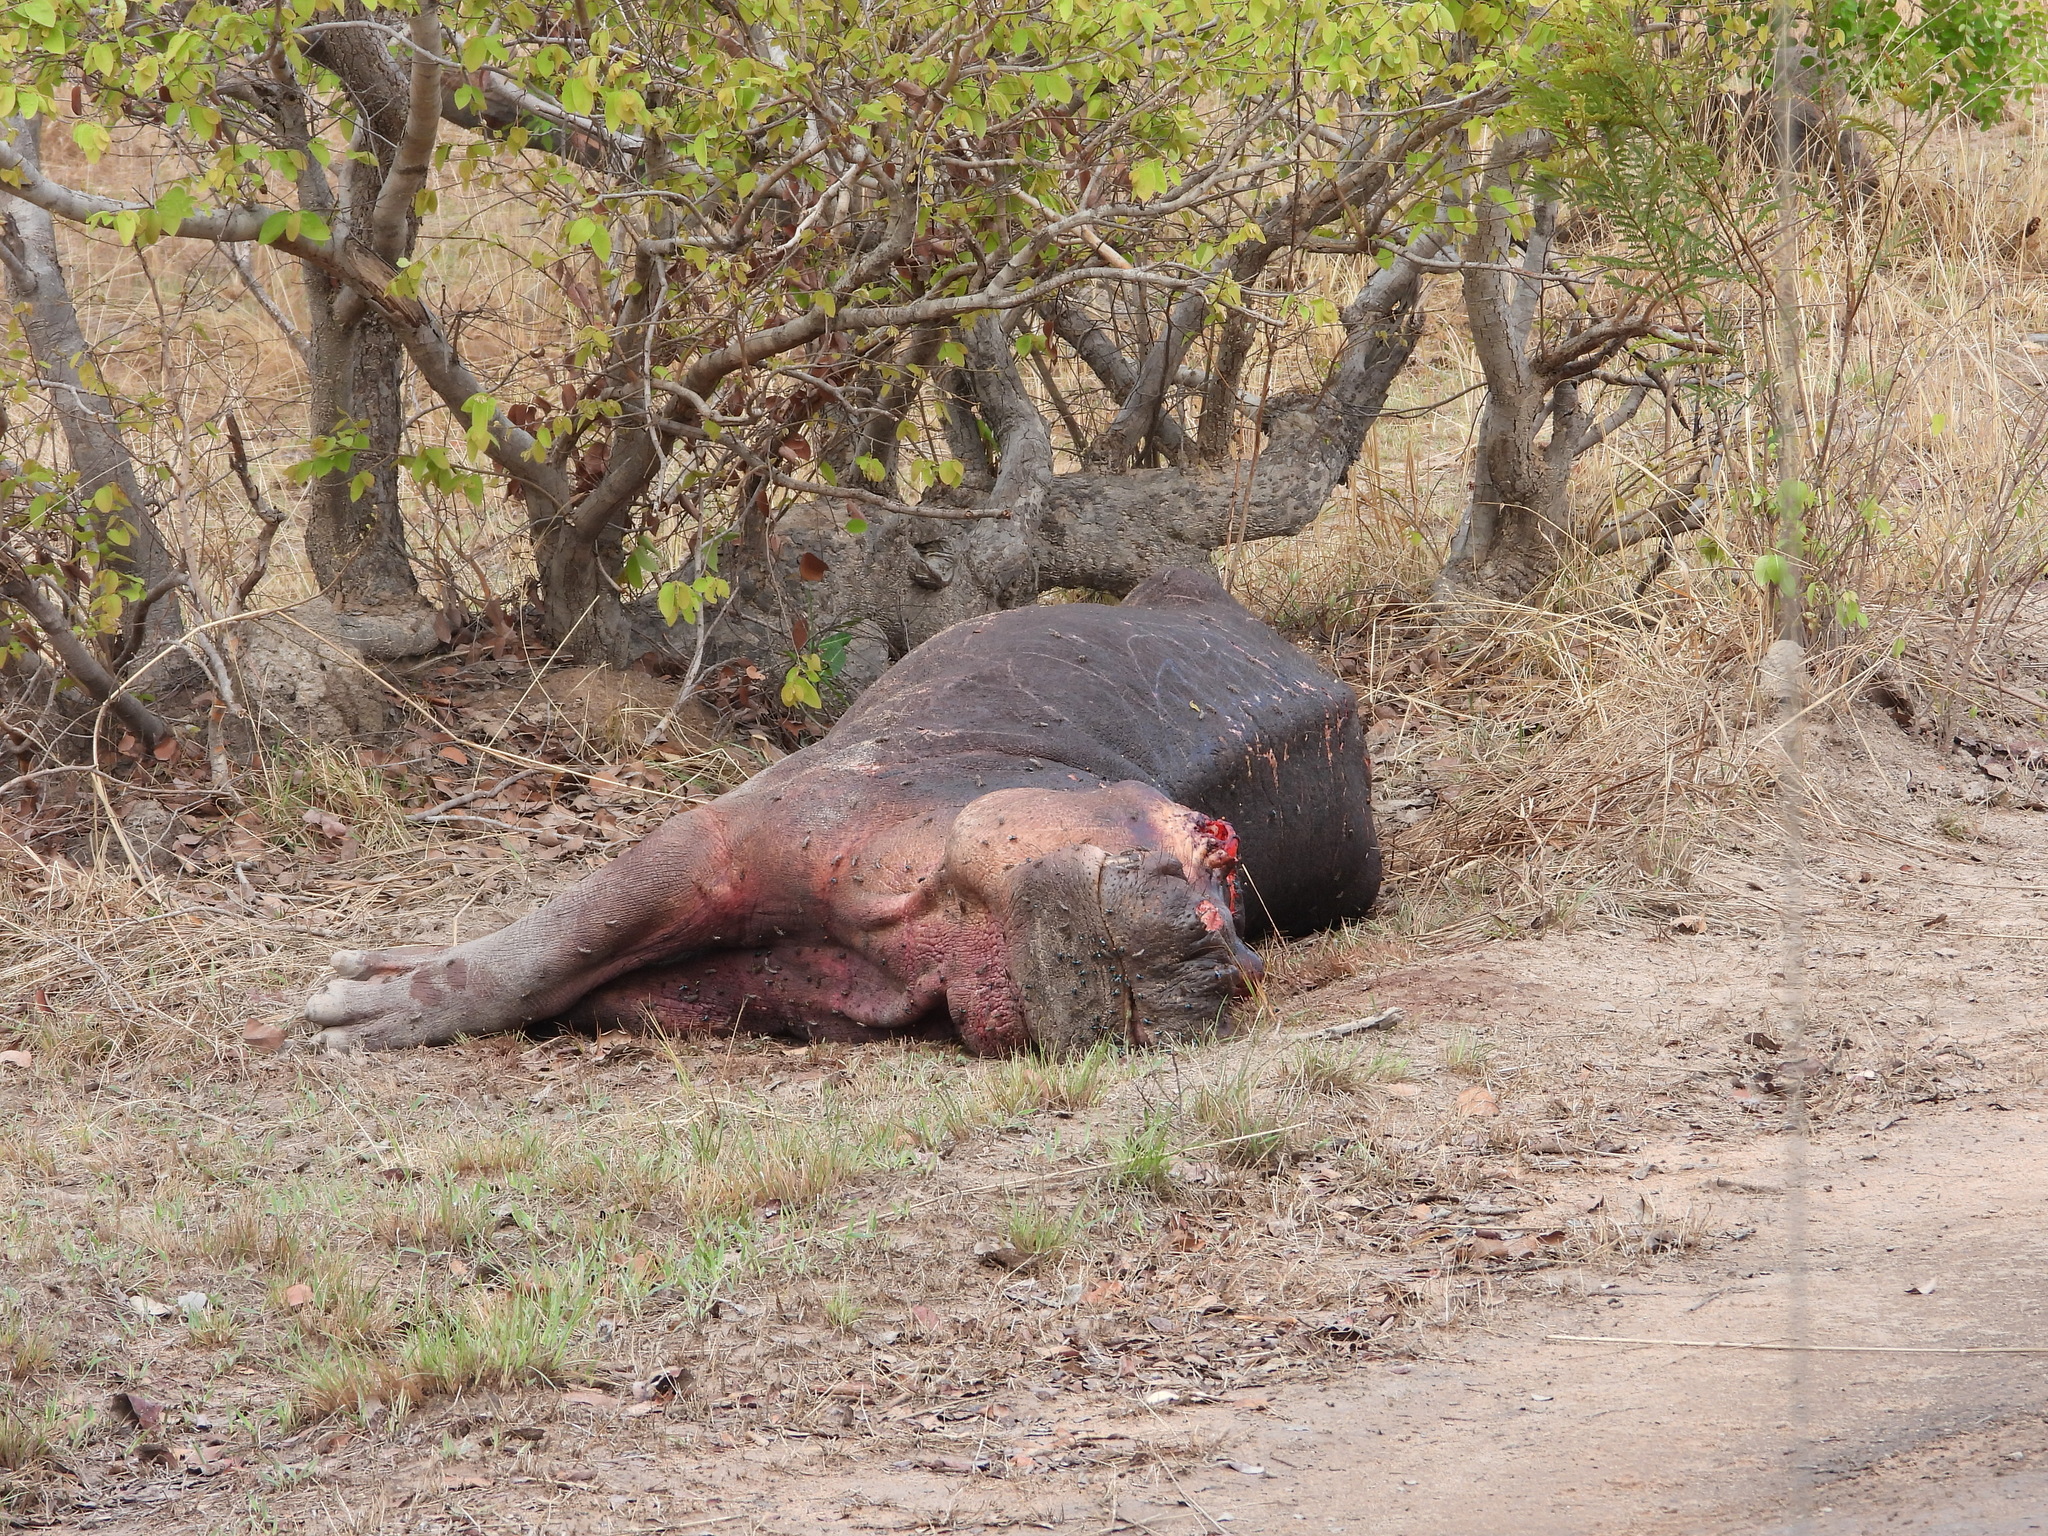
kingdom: Animalia
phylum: Chordata
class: Mammalia
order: Artiodactyla
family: Hippopotamidae
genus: Hippopotamus
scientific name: Hippopotamus amphibius
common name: Common hippopotamus
